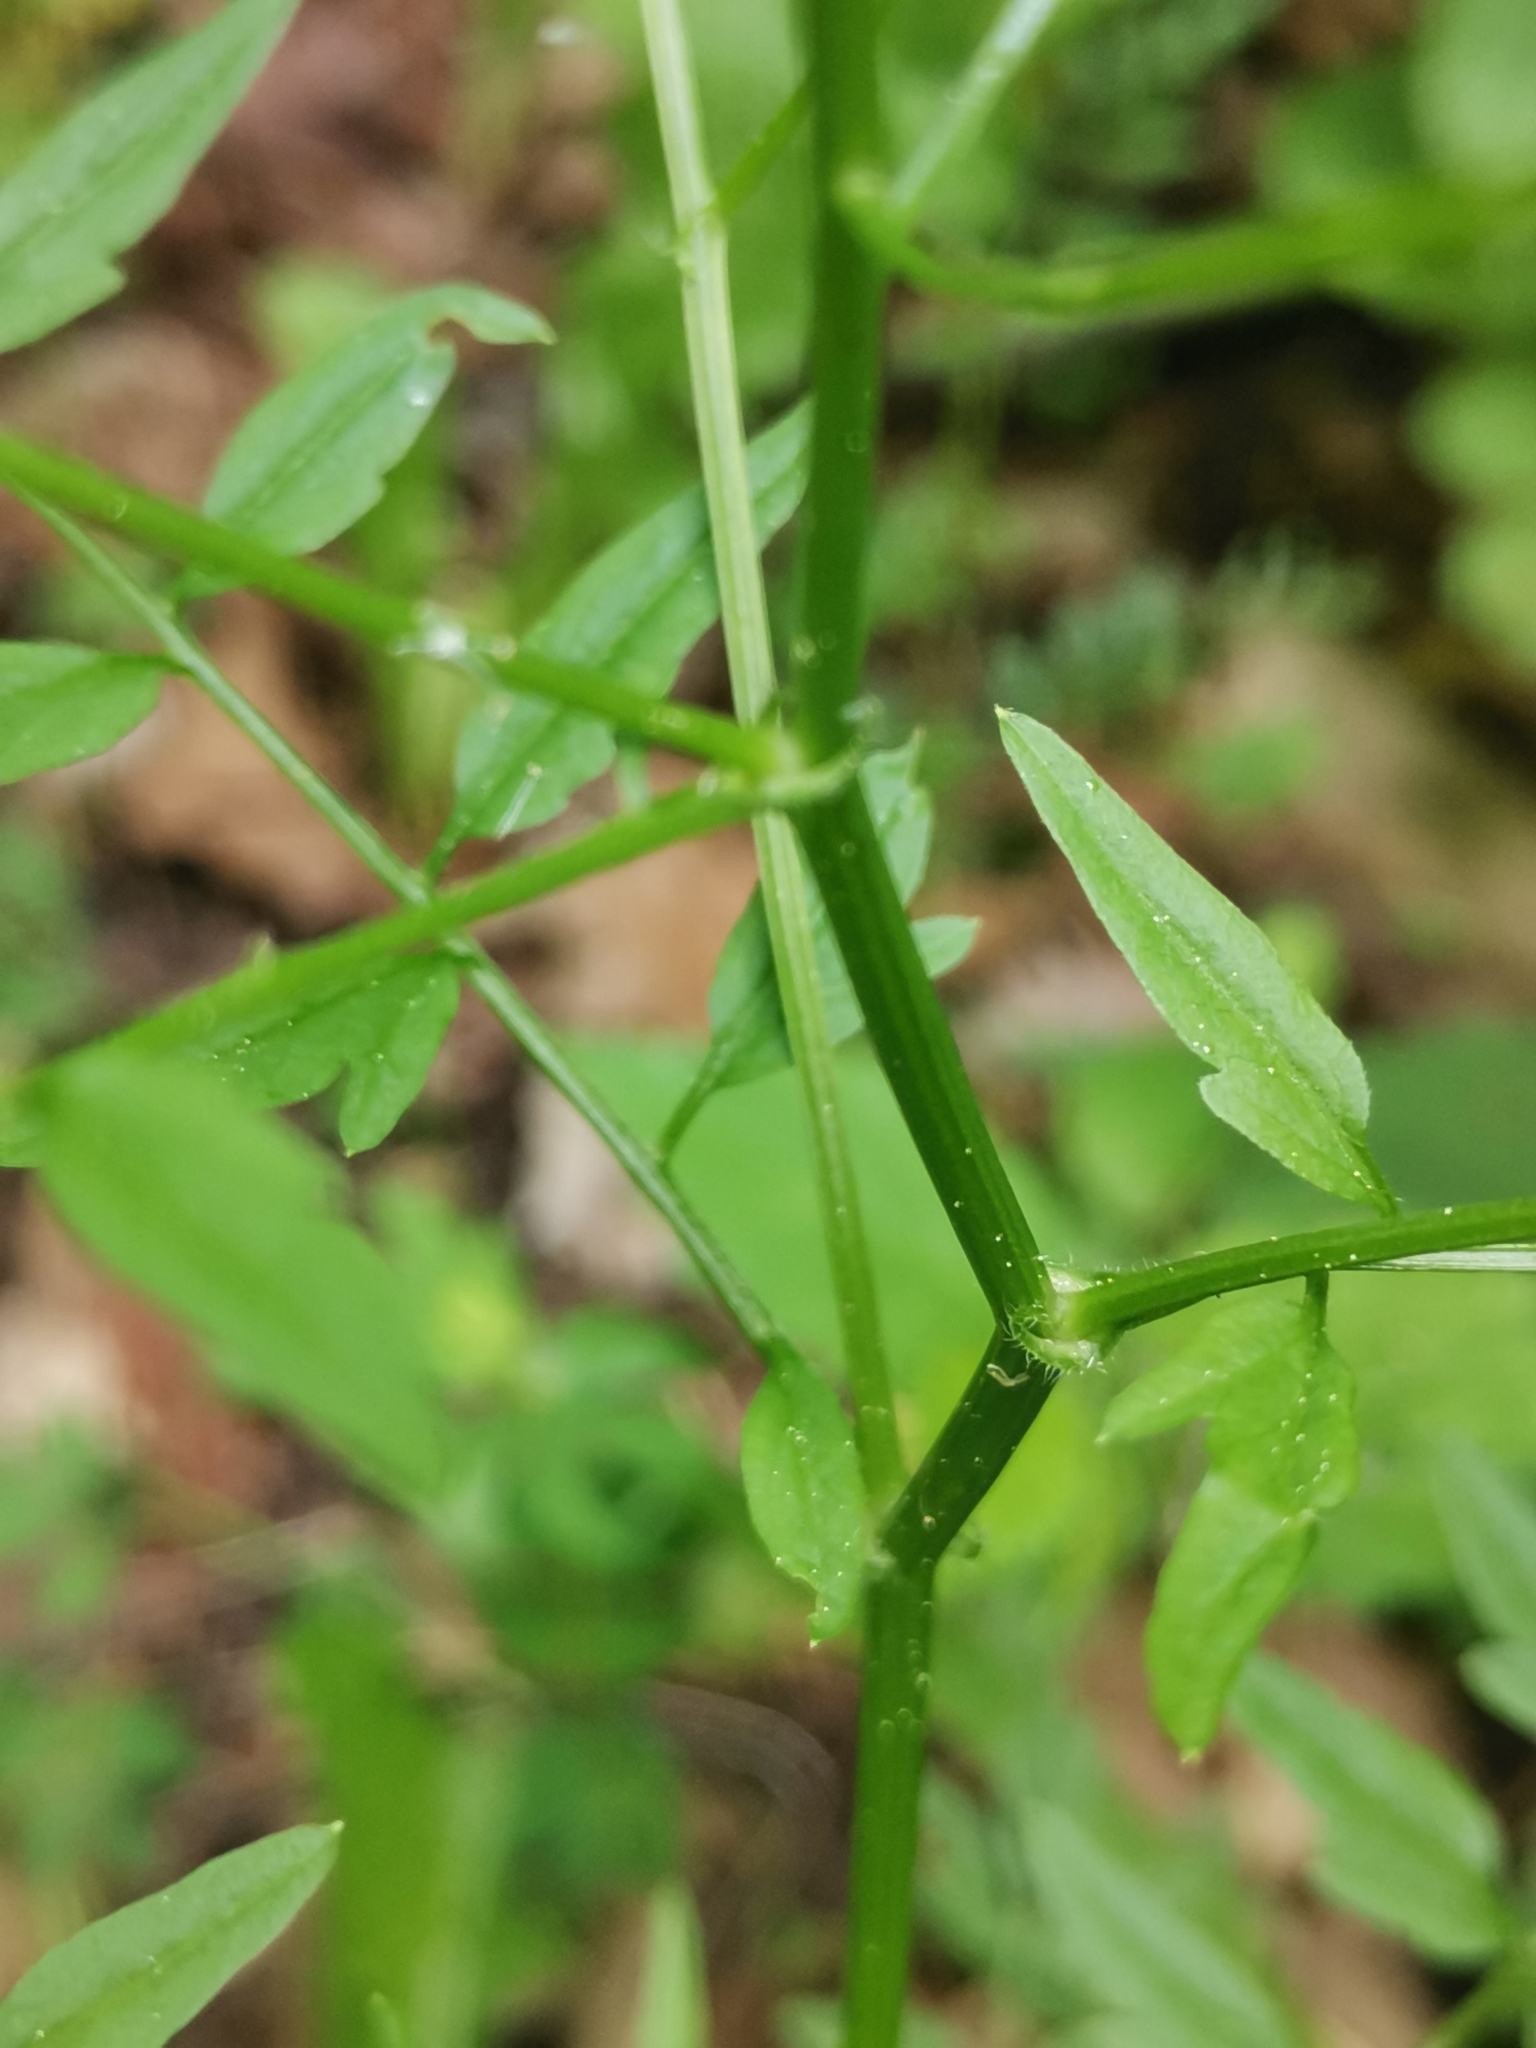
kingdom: Plantae
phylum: Tracheophyta
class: Magnoliopsida
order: Brassicales
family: Brassicaceae
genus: Cardamine
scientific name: Cardamine impatiens
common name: Narrow-leaved bitter-cress
